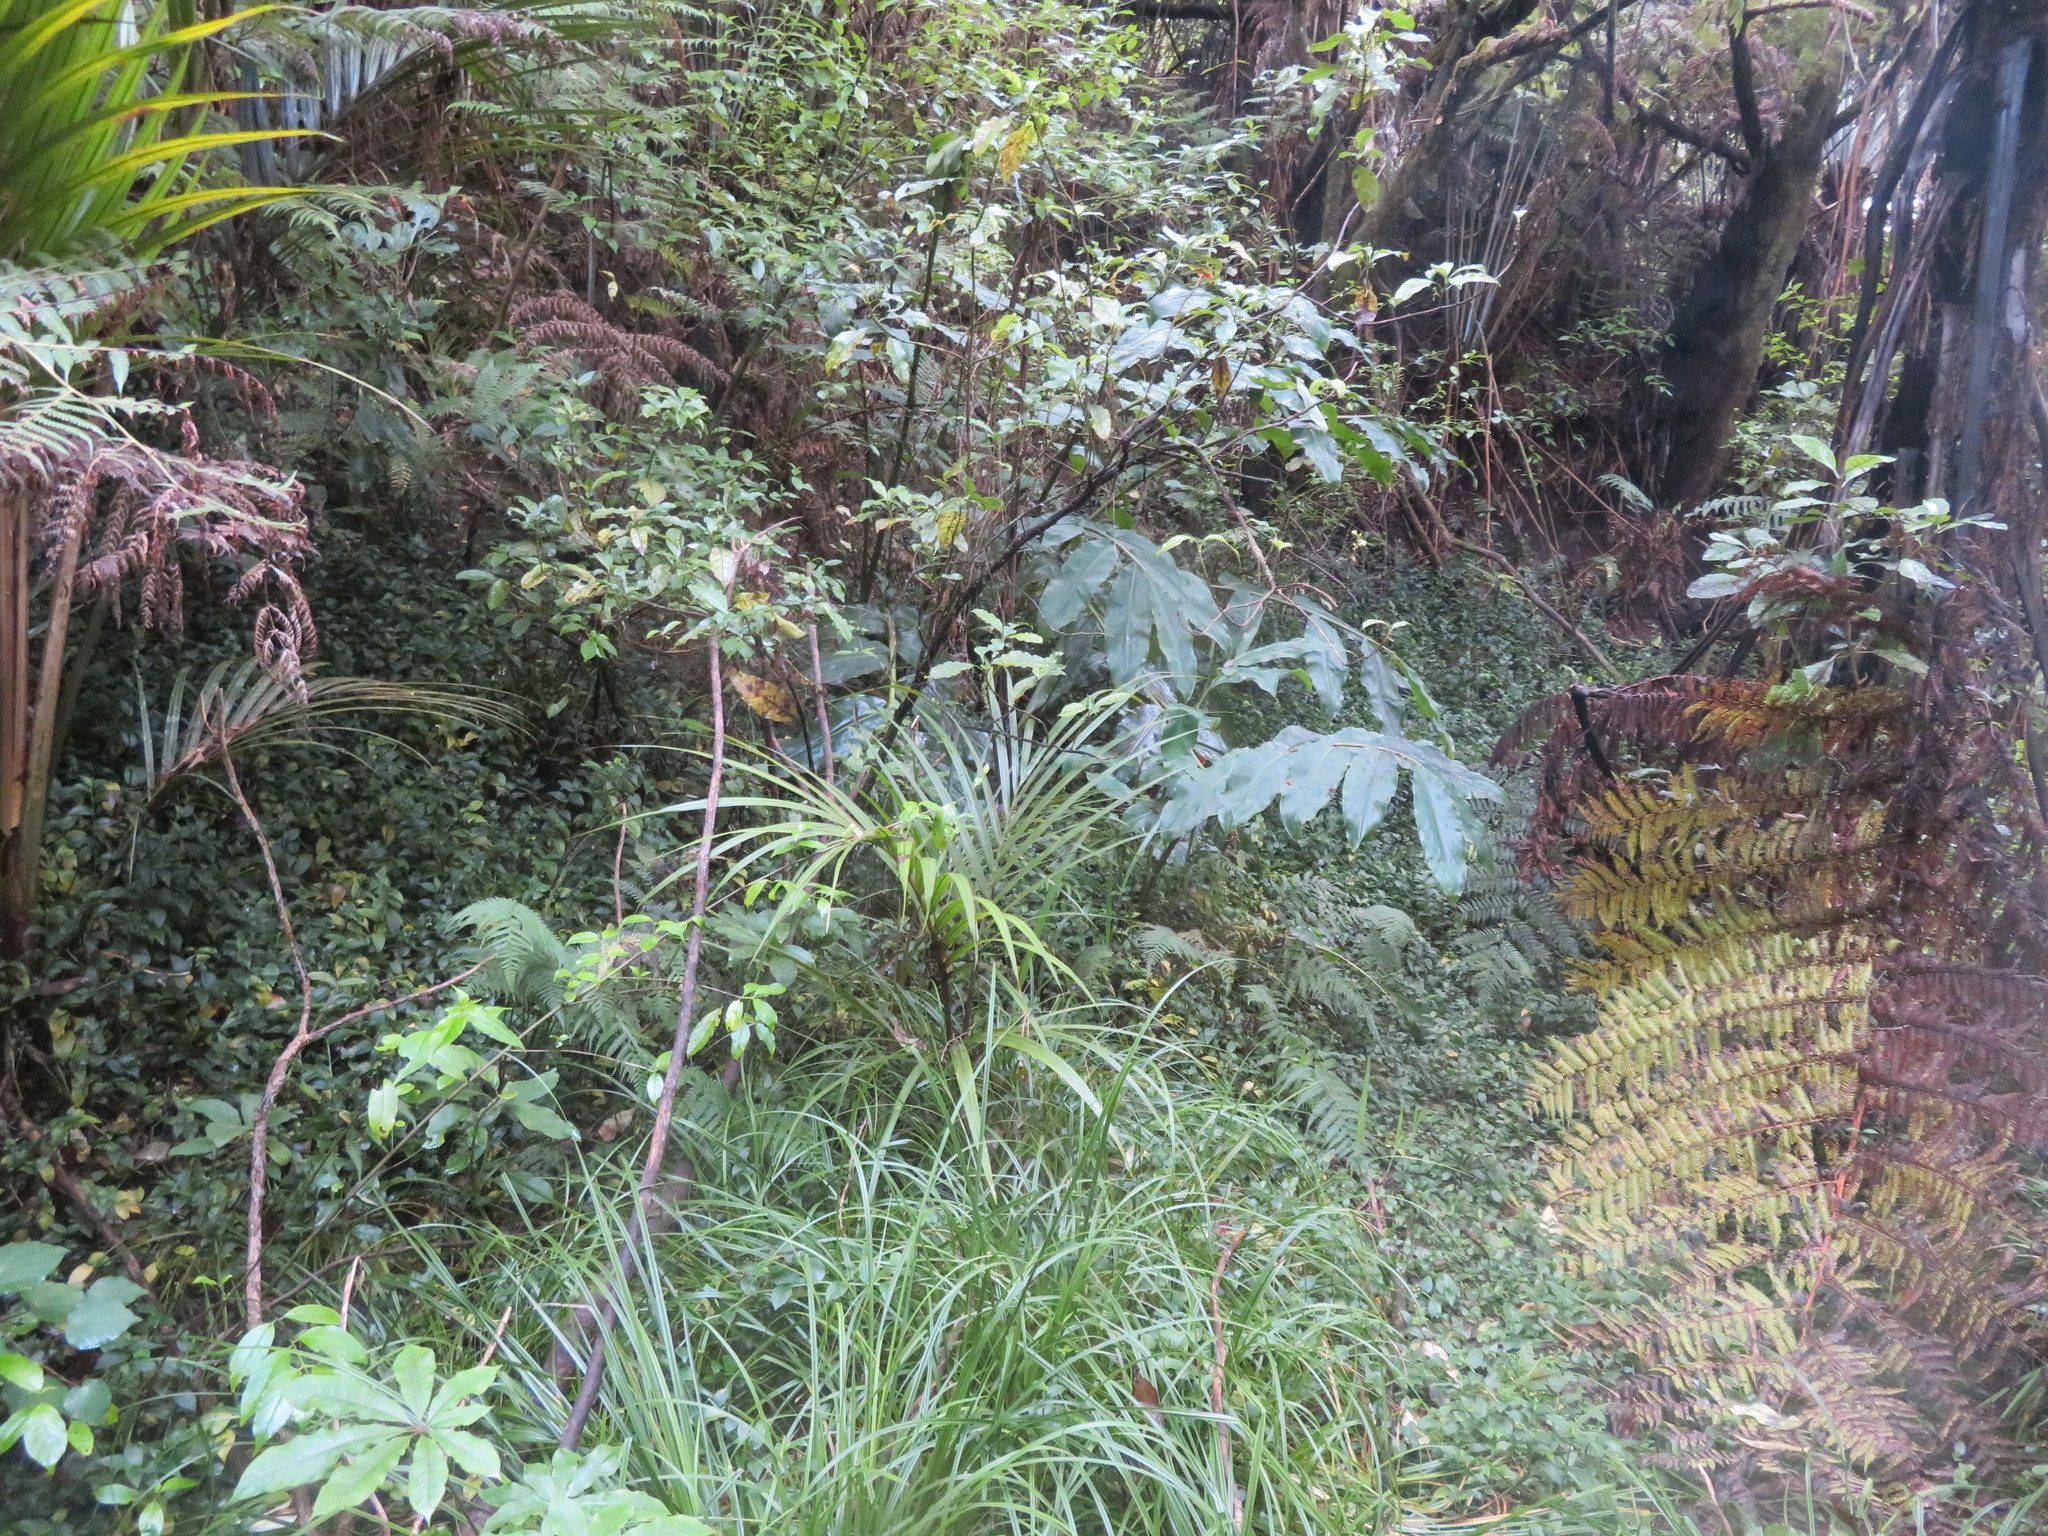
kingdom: Plantae
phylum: Tracheophyta
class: Liliopsida
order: Zingiberales
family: Zingiberaceae
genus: Hedychium
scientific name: Hedychium gardnerianum
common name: Himalayan ginger
